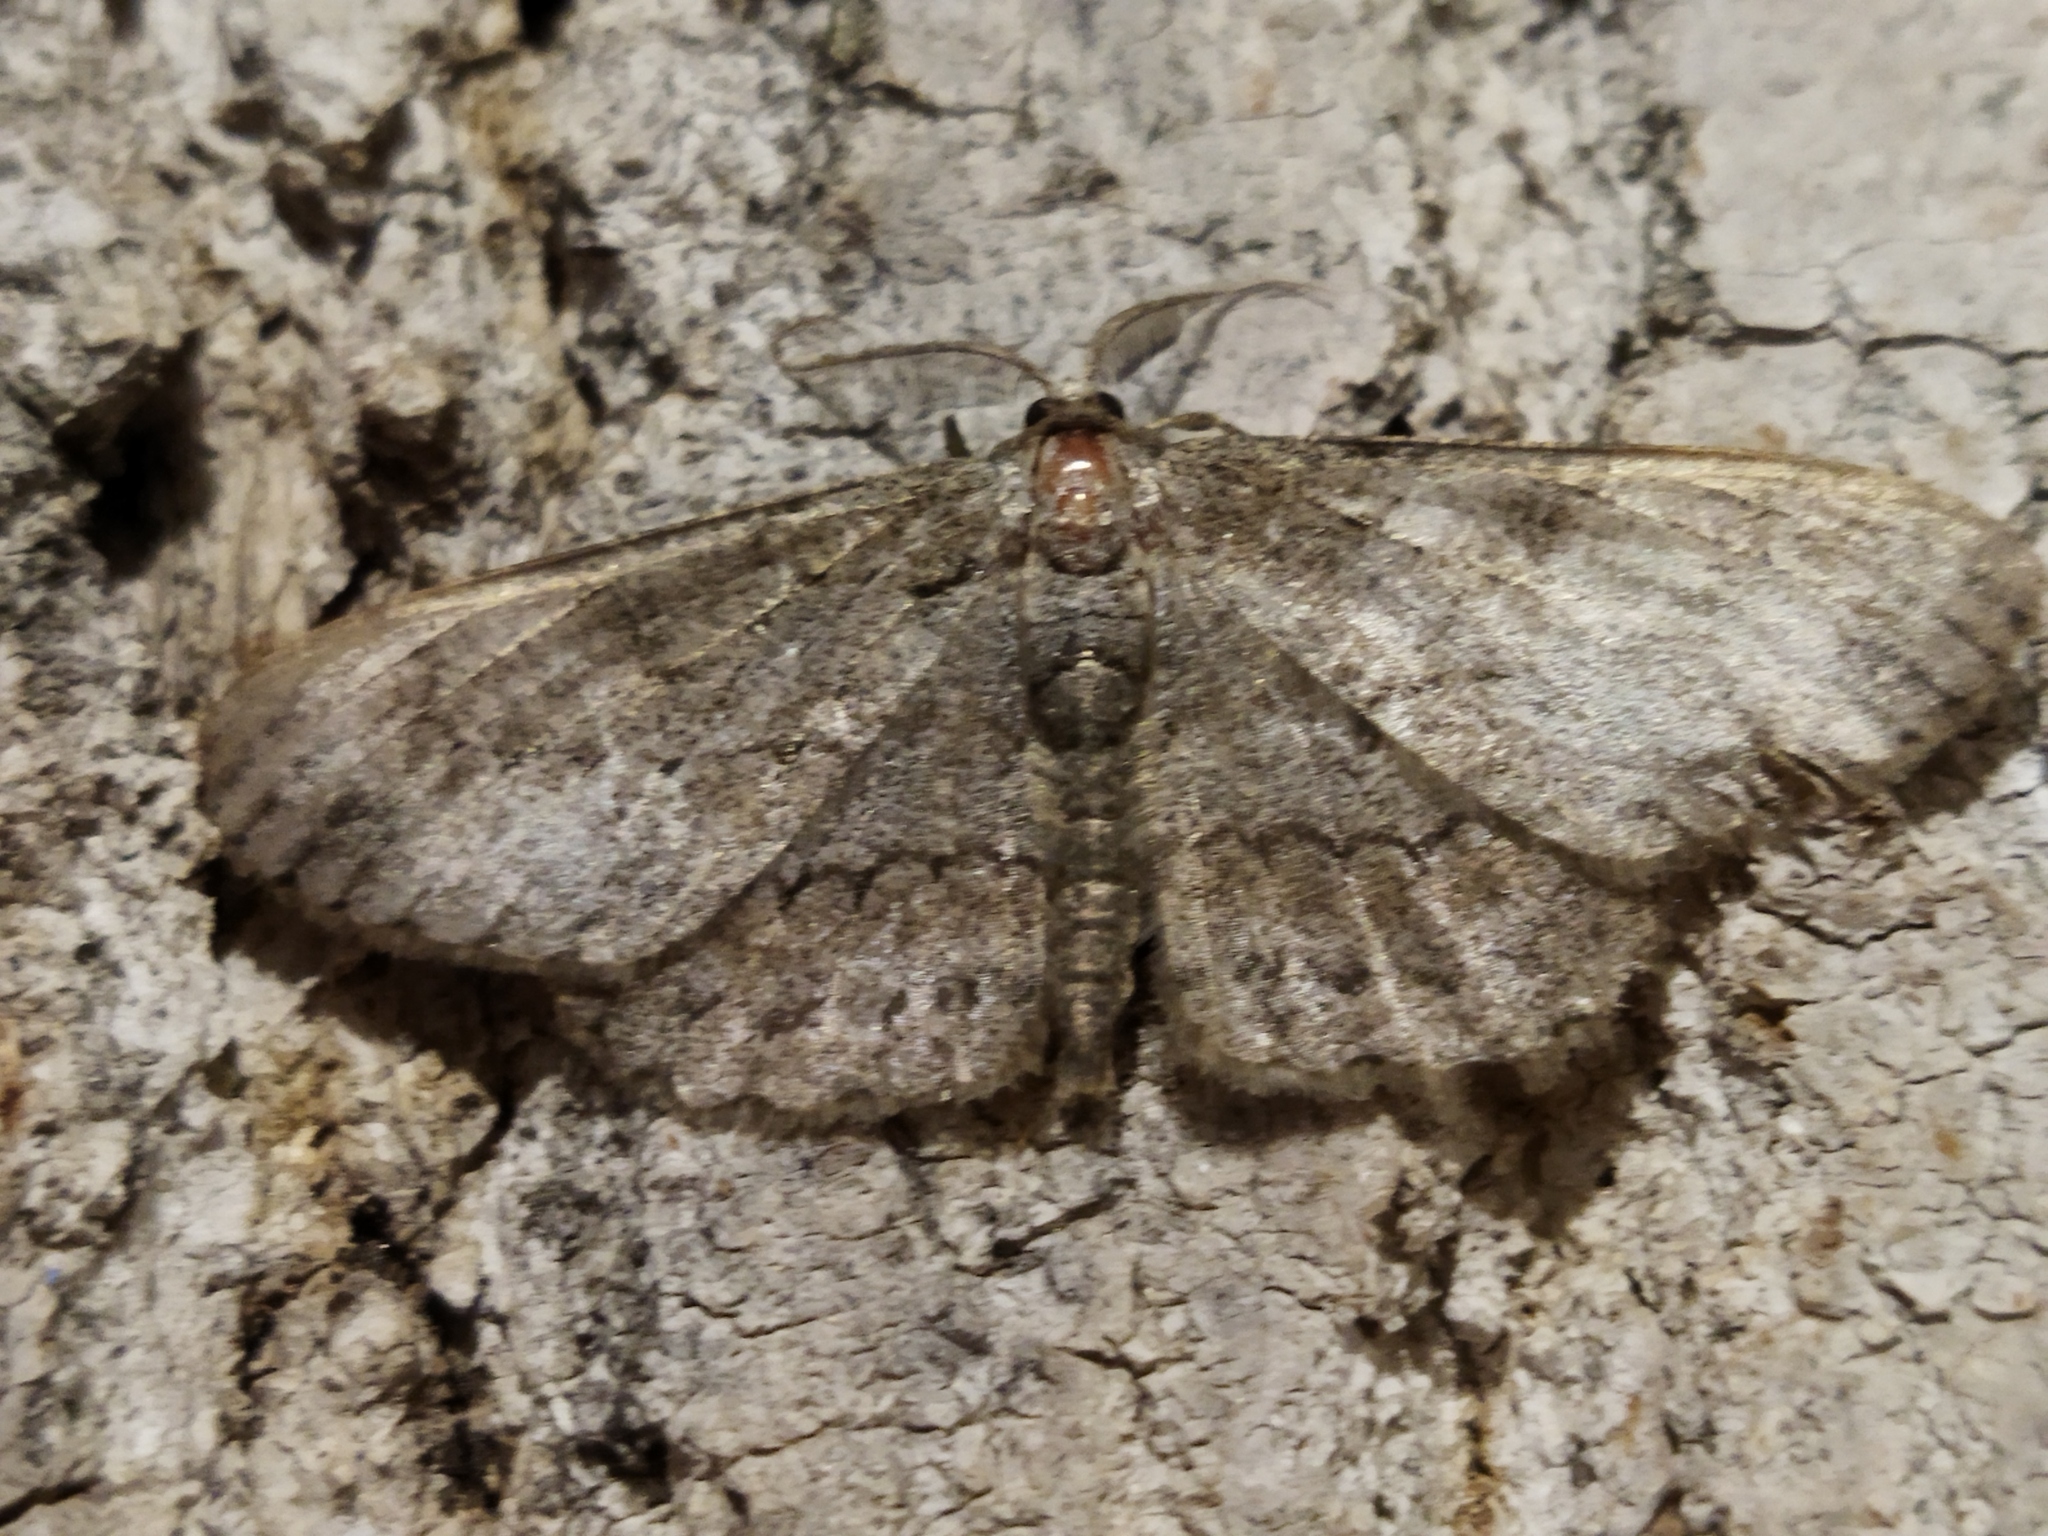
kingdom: Animalia
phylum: Arthropoda
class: Insecta
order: Lepidoptera
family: Geometridae
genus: Hypomecis
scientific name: Hypomecis punctinalis
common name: Pale oak beauty
